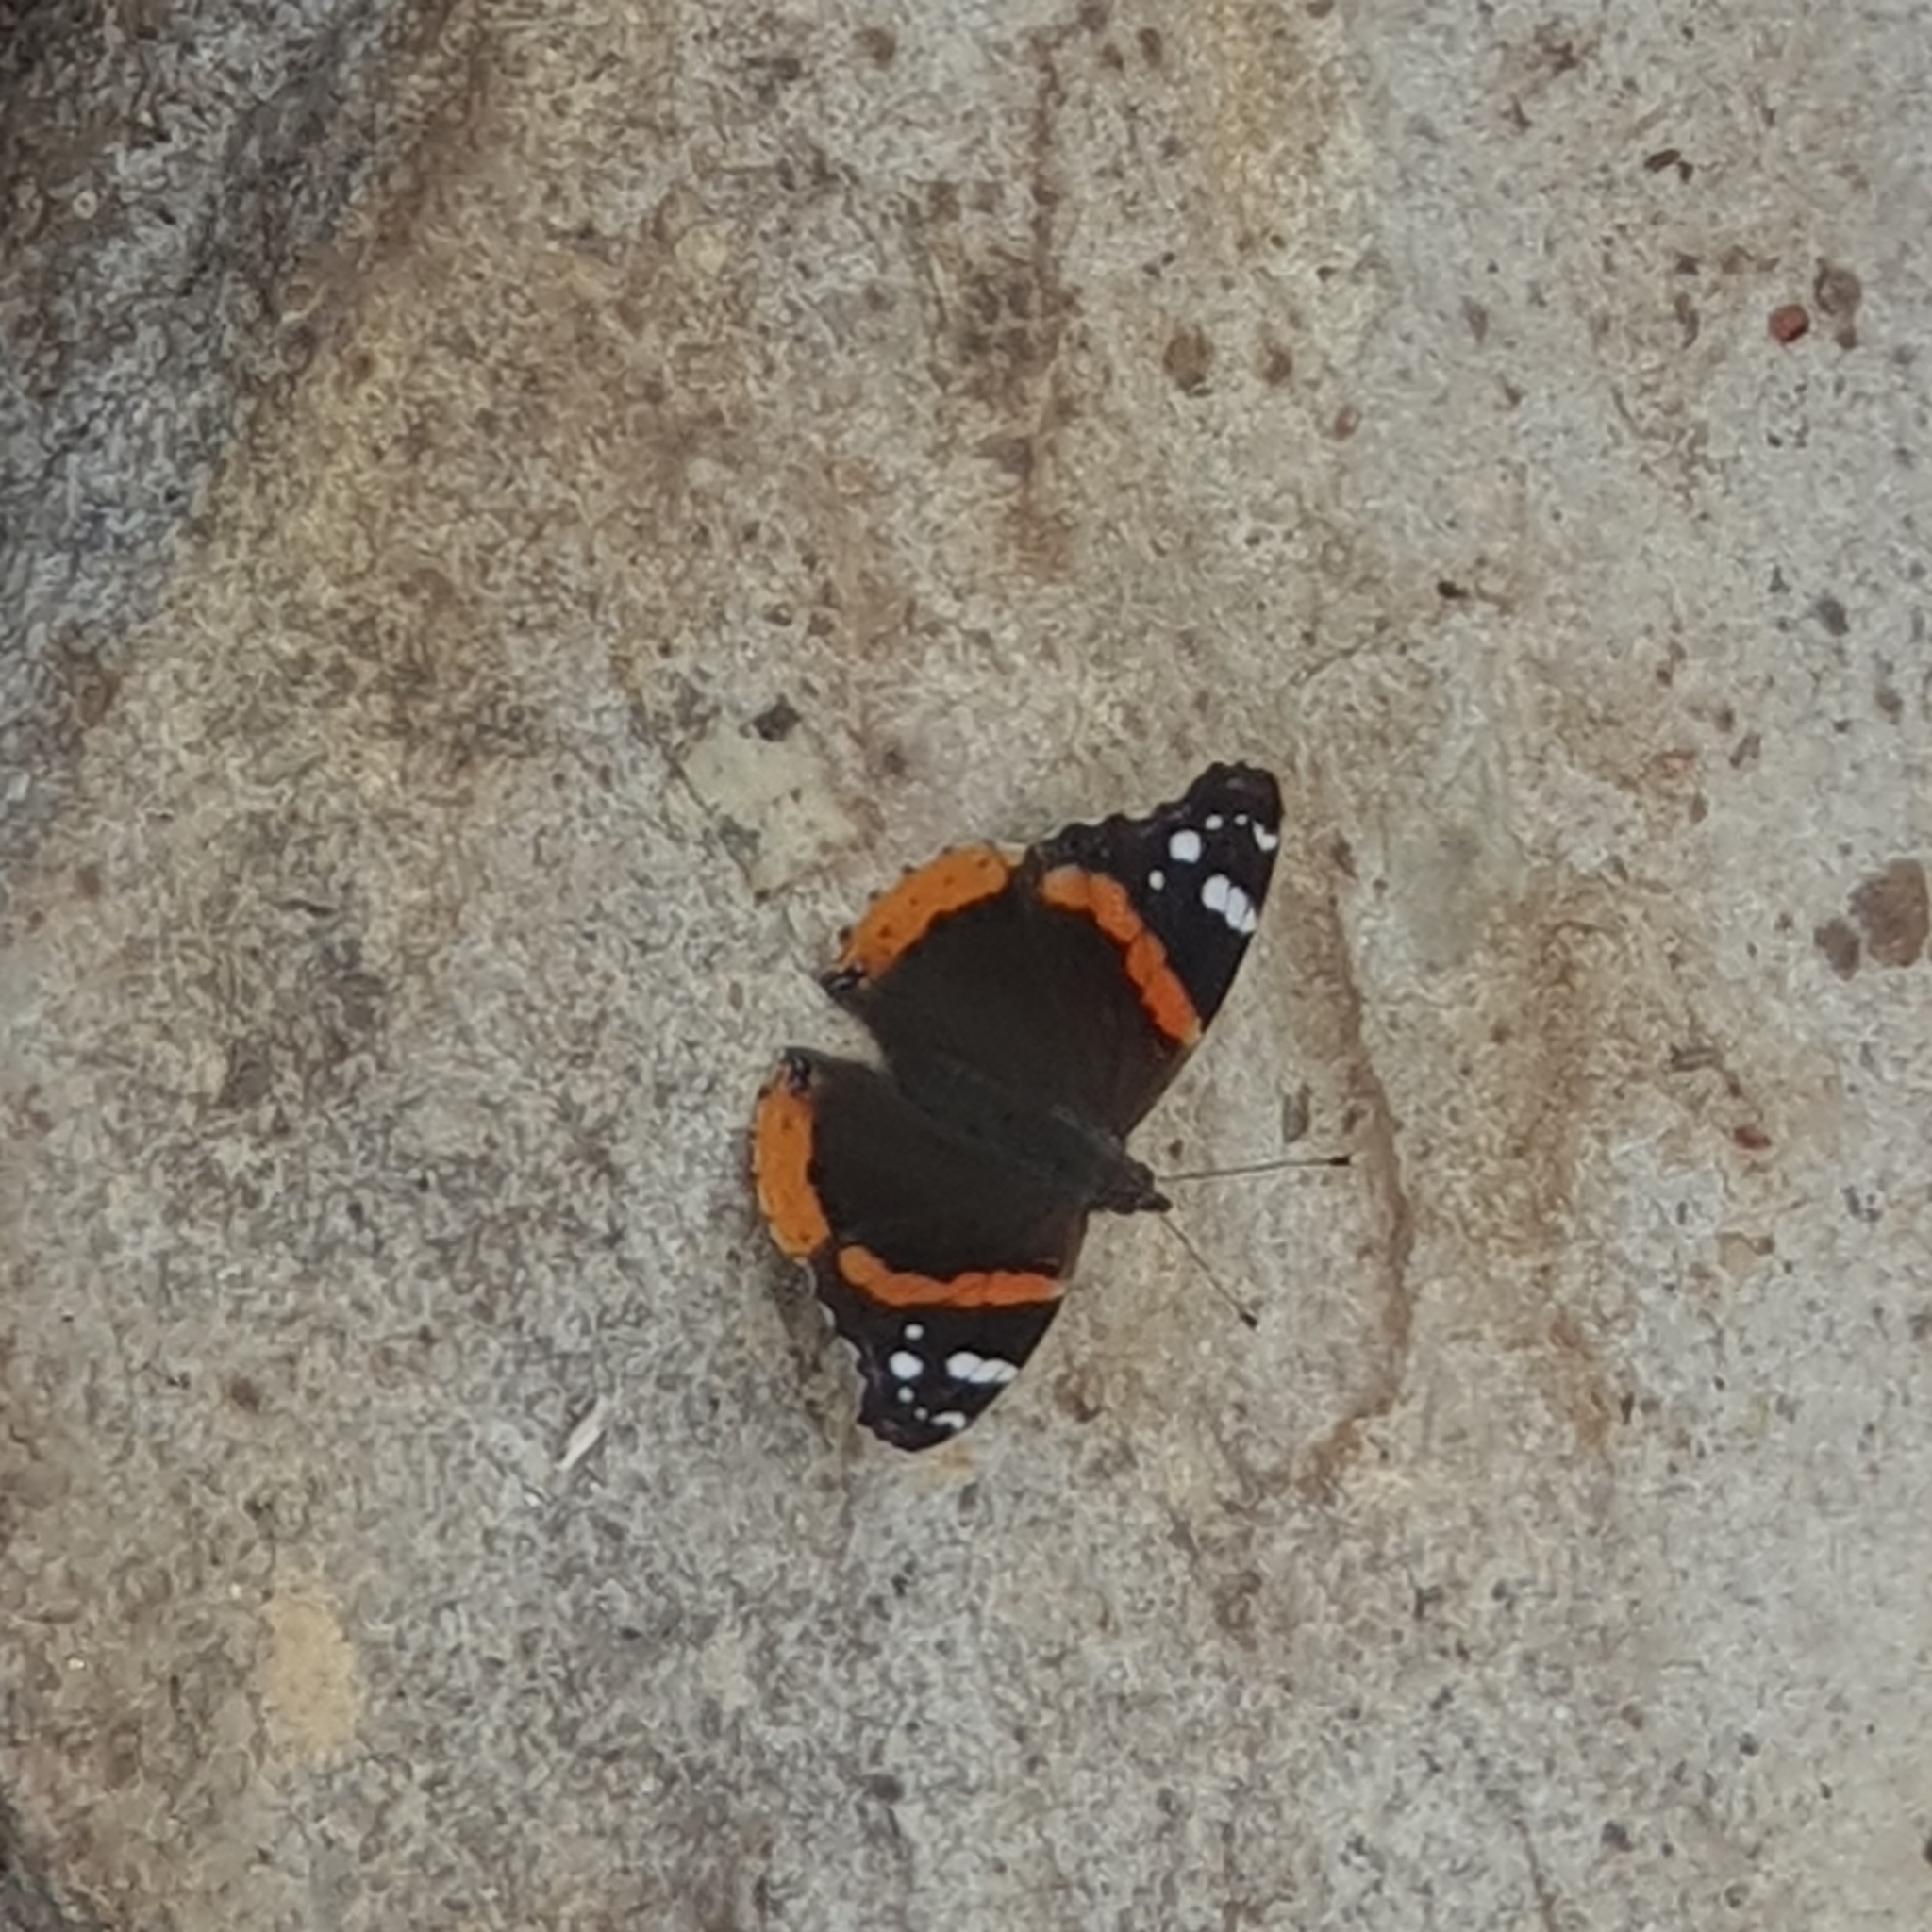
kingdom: Animalia
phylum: Arthropoda
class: Insecta
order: Lepidoptera
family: Nymphalidae
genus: Vanessa
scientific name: Vanessa atalanta
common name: Red admiral
